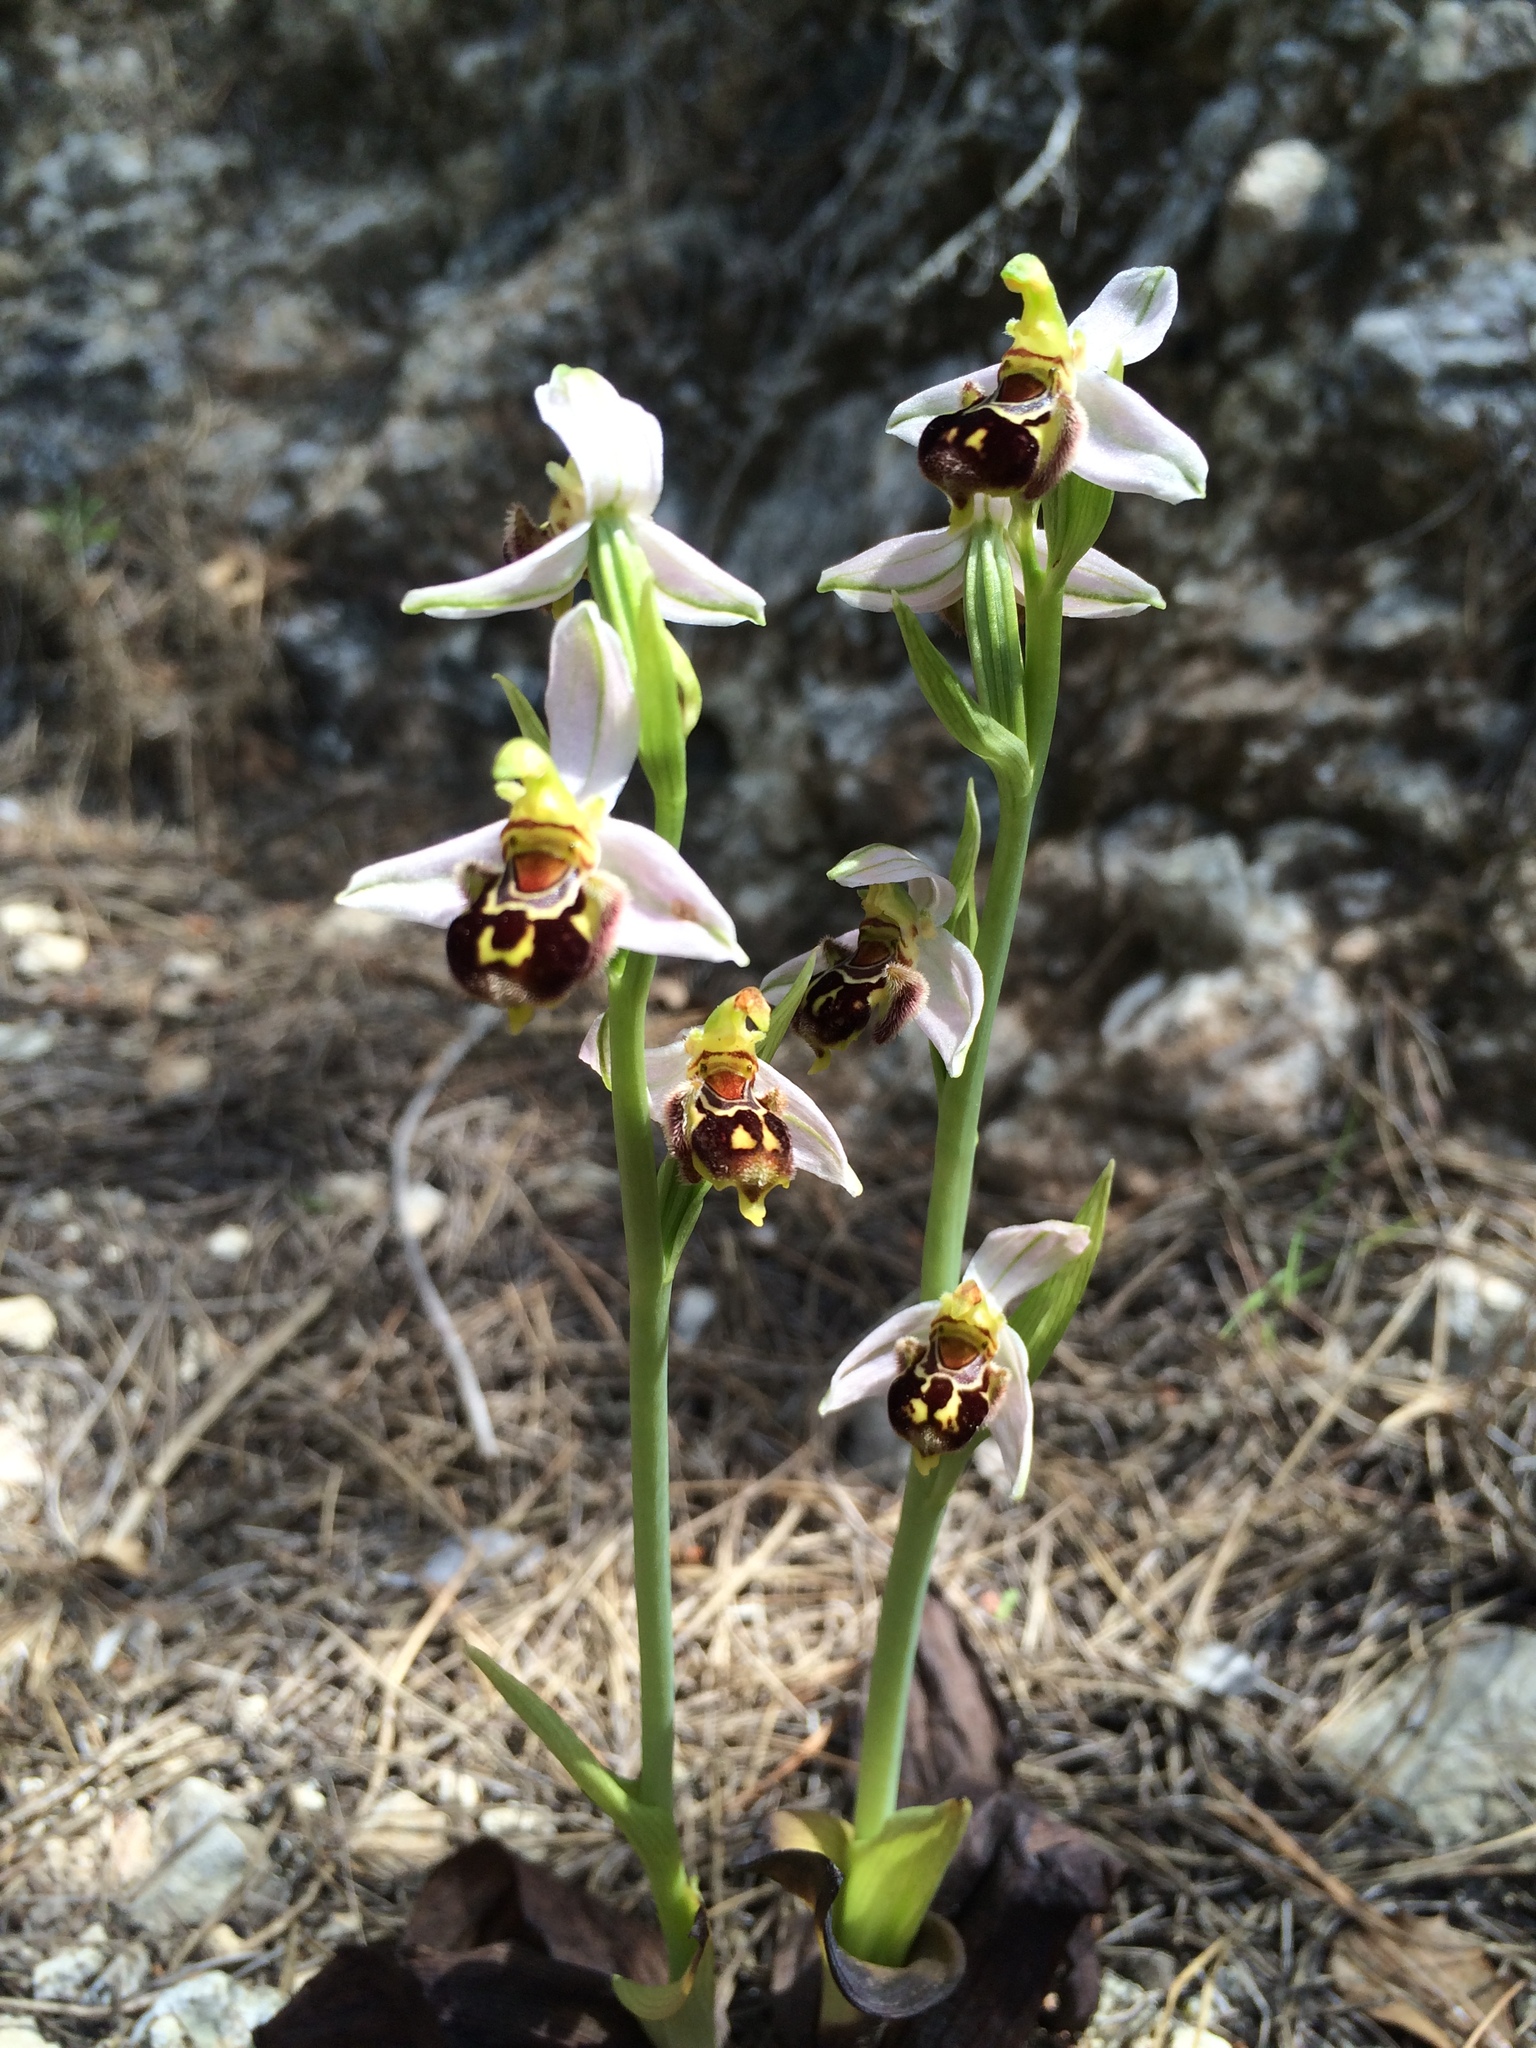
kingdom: Plantae
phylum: Tracheophyta
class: Liliopsida
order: Asparagales
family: Orchidaceae
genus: Ophrys
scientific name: Ophrys apifera
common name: Bee orchid
